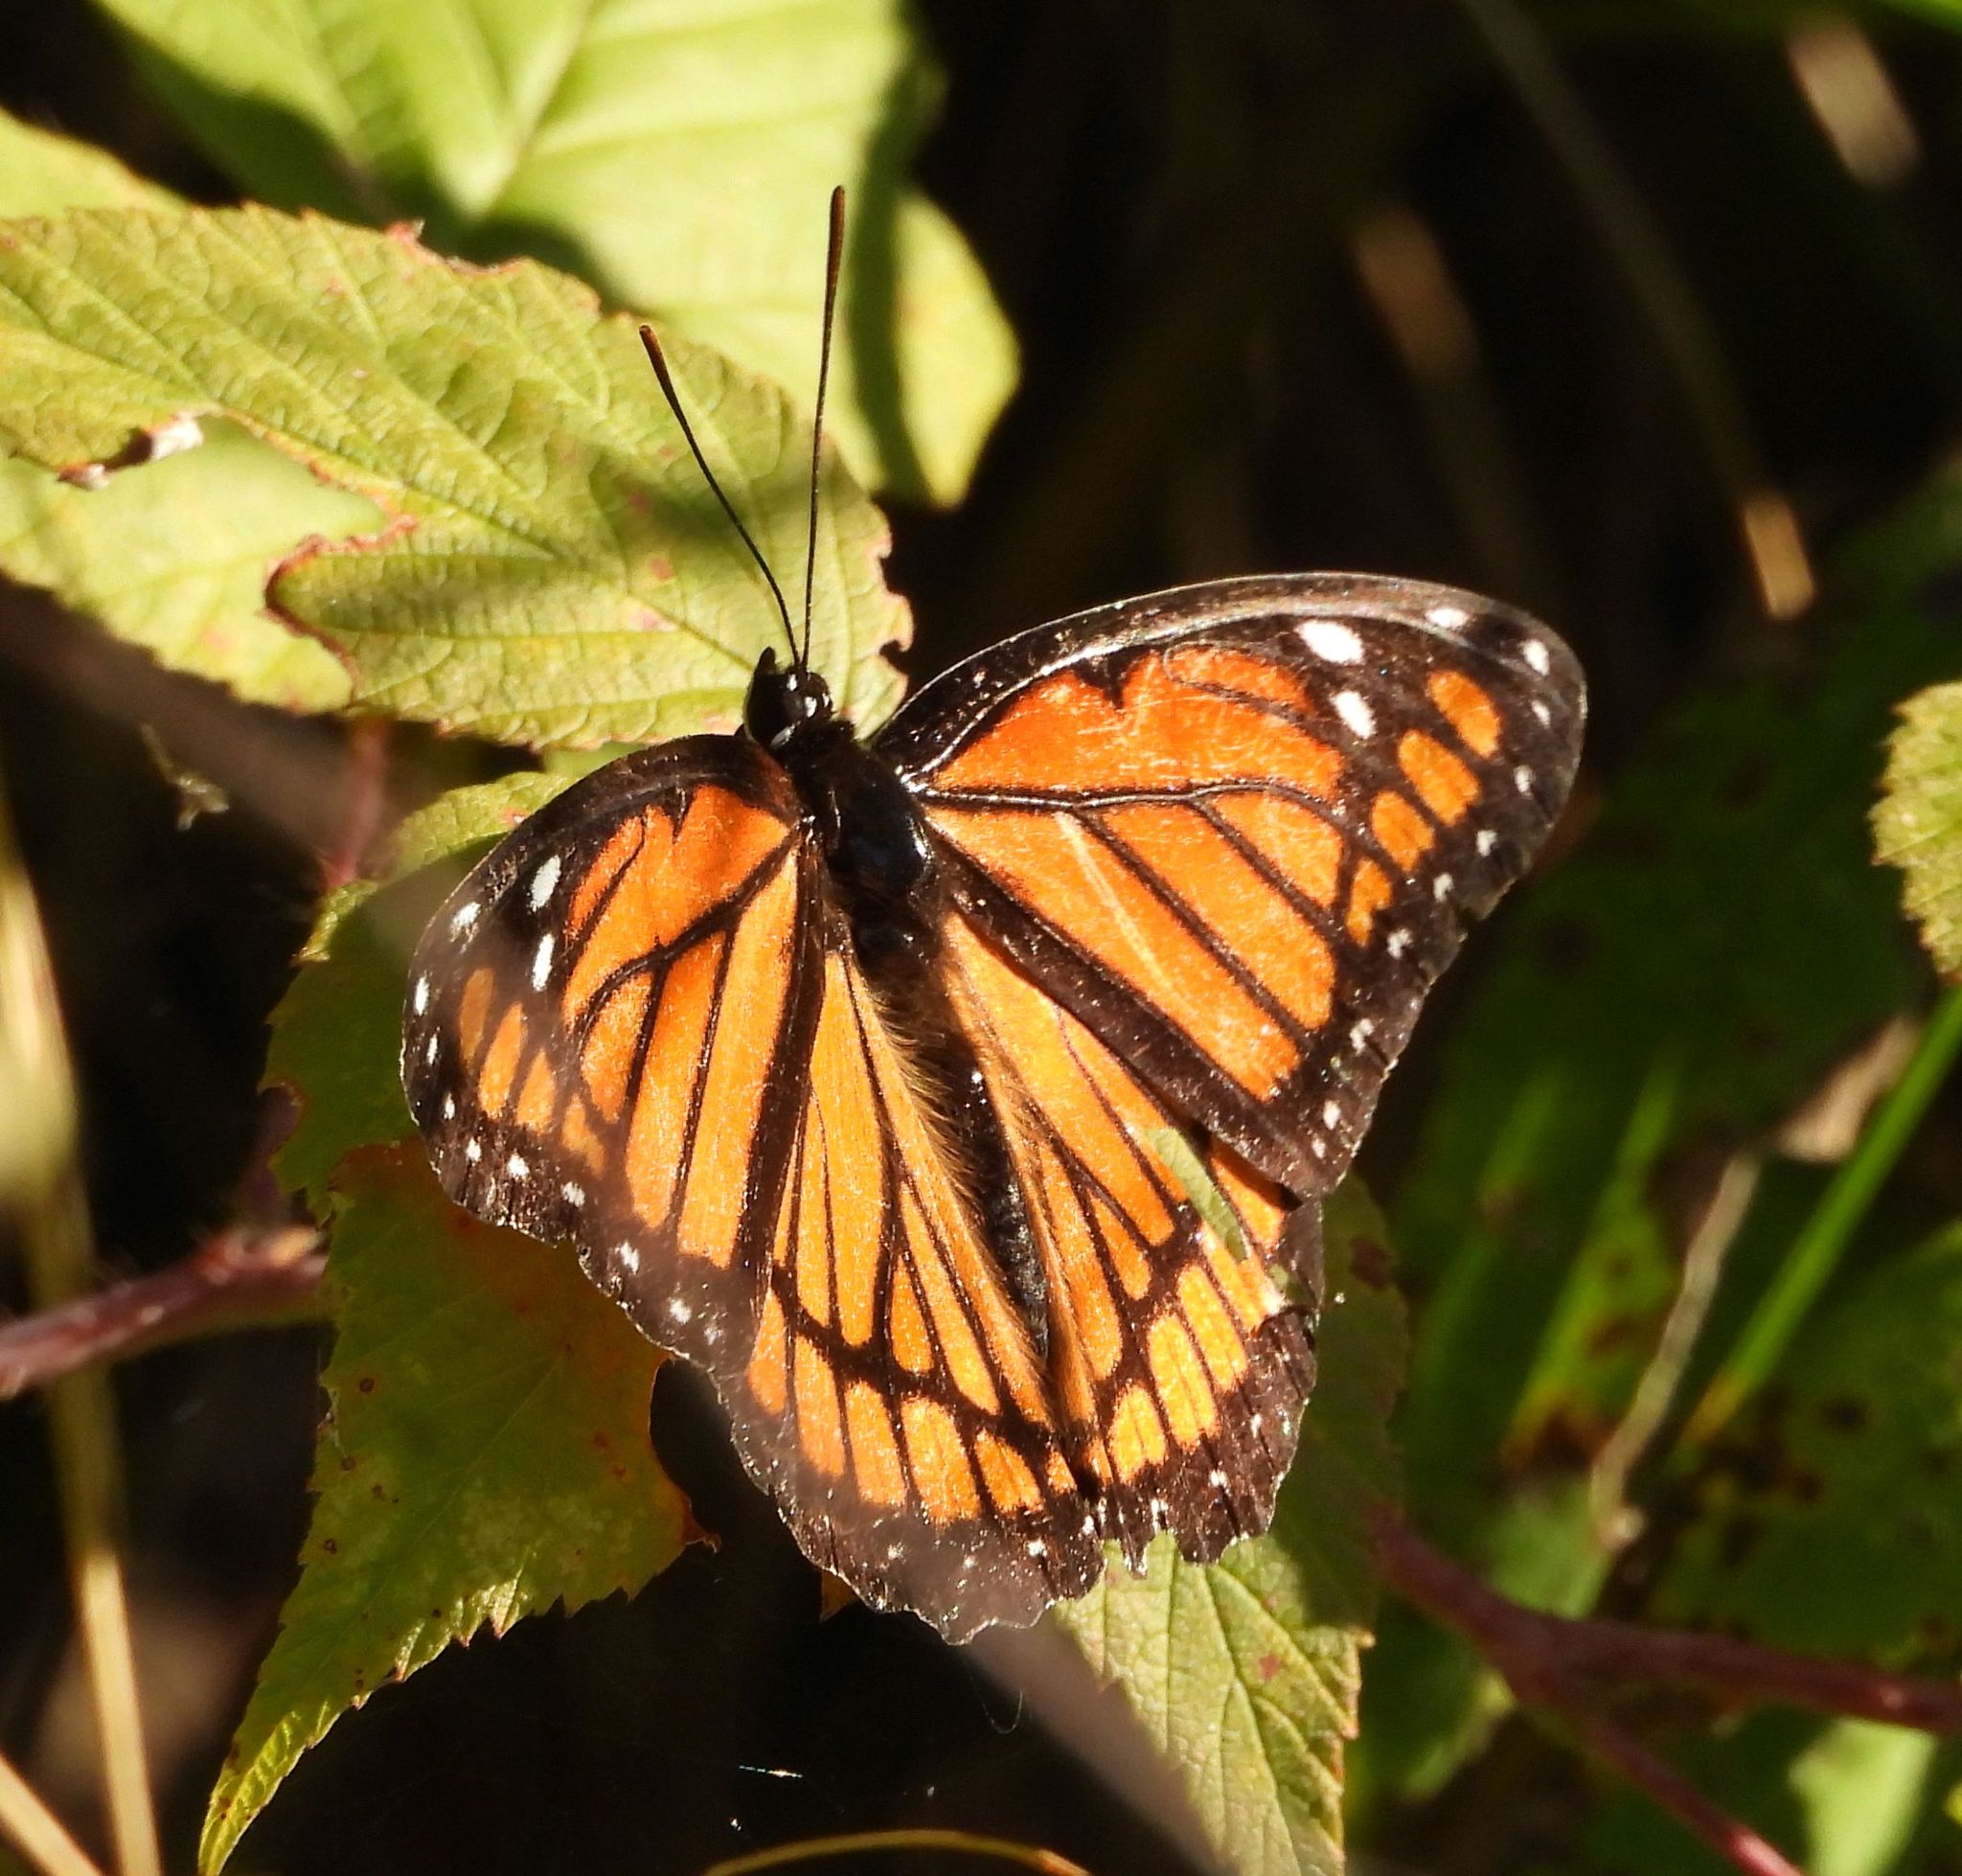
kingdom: Animalia
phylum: Arthropoda
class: Insecta
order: Lepidoptera
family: Nymphalidae
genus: Limenitis
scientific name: Limenitis archippus
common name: Viceroy
